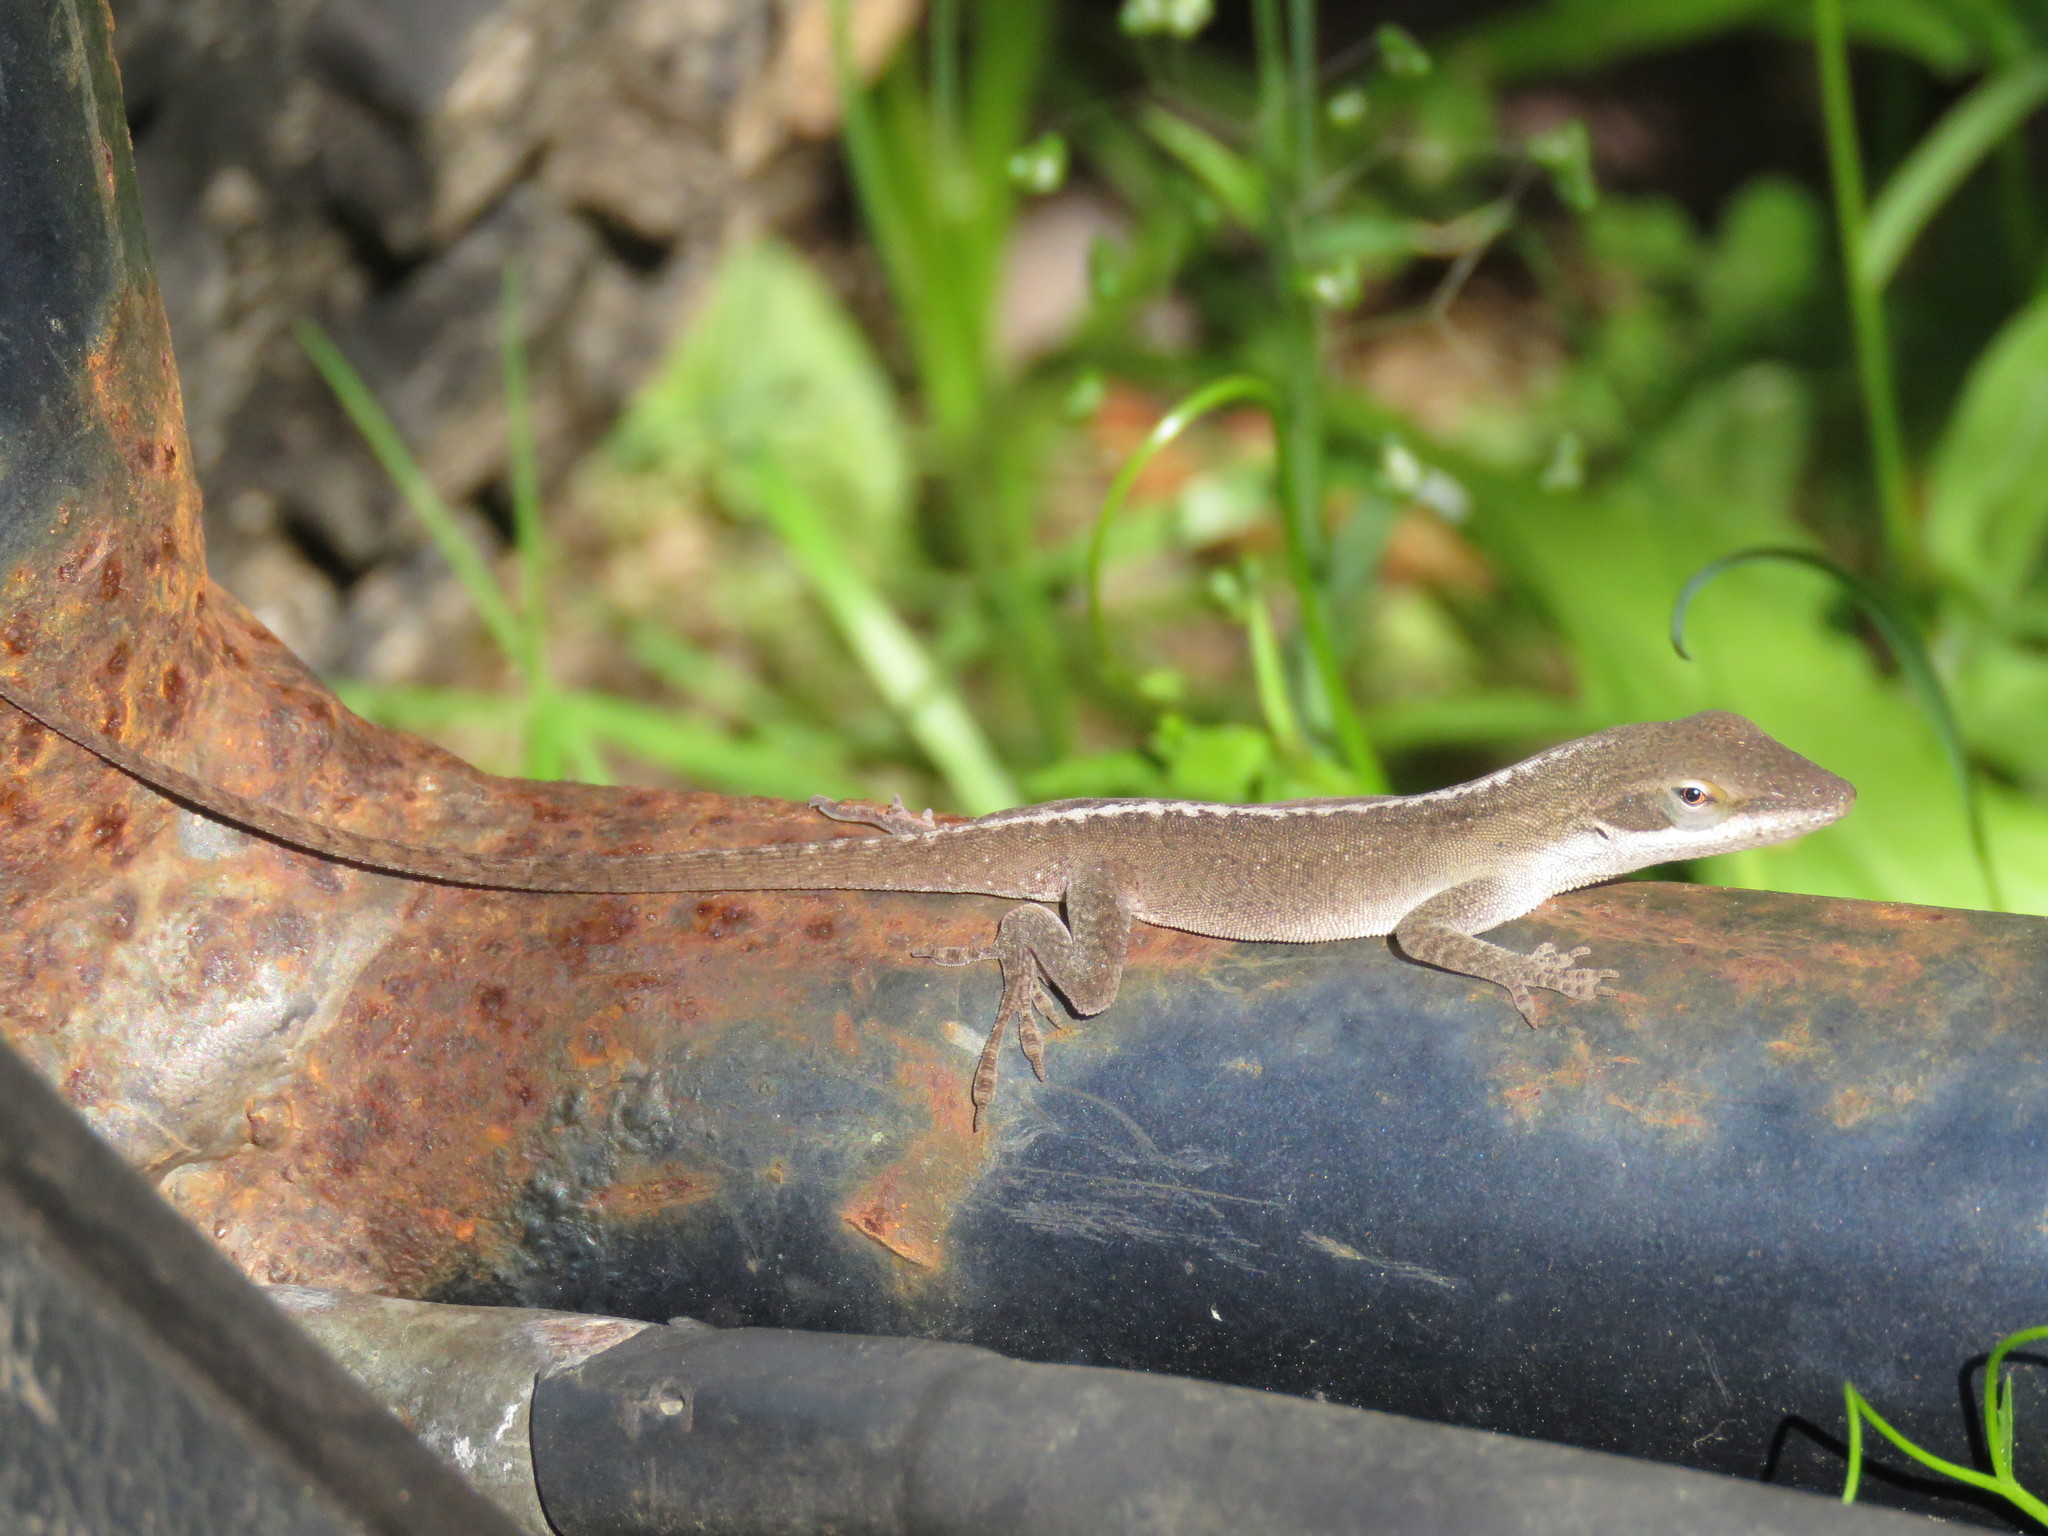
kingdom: Animalia
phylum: Chordata
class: Squamata
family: Dactyloidae
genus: Anolis
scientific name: Anolis carolinensis
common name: Green anole
